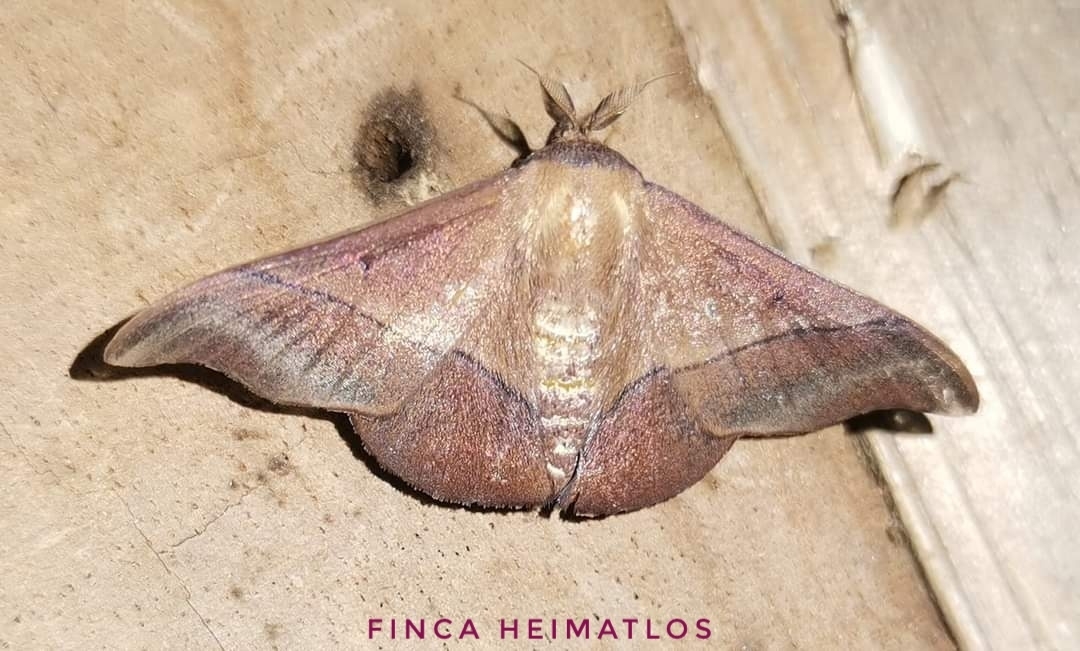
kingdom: Animalia
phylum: Arthropoda
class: Insecta
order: Lepidoptera
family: Mimallonidae
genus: Alheita
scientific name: Alheita subnotata
